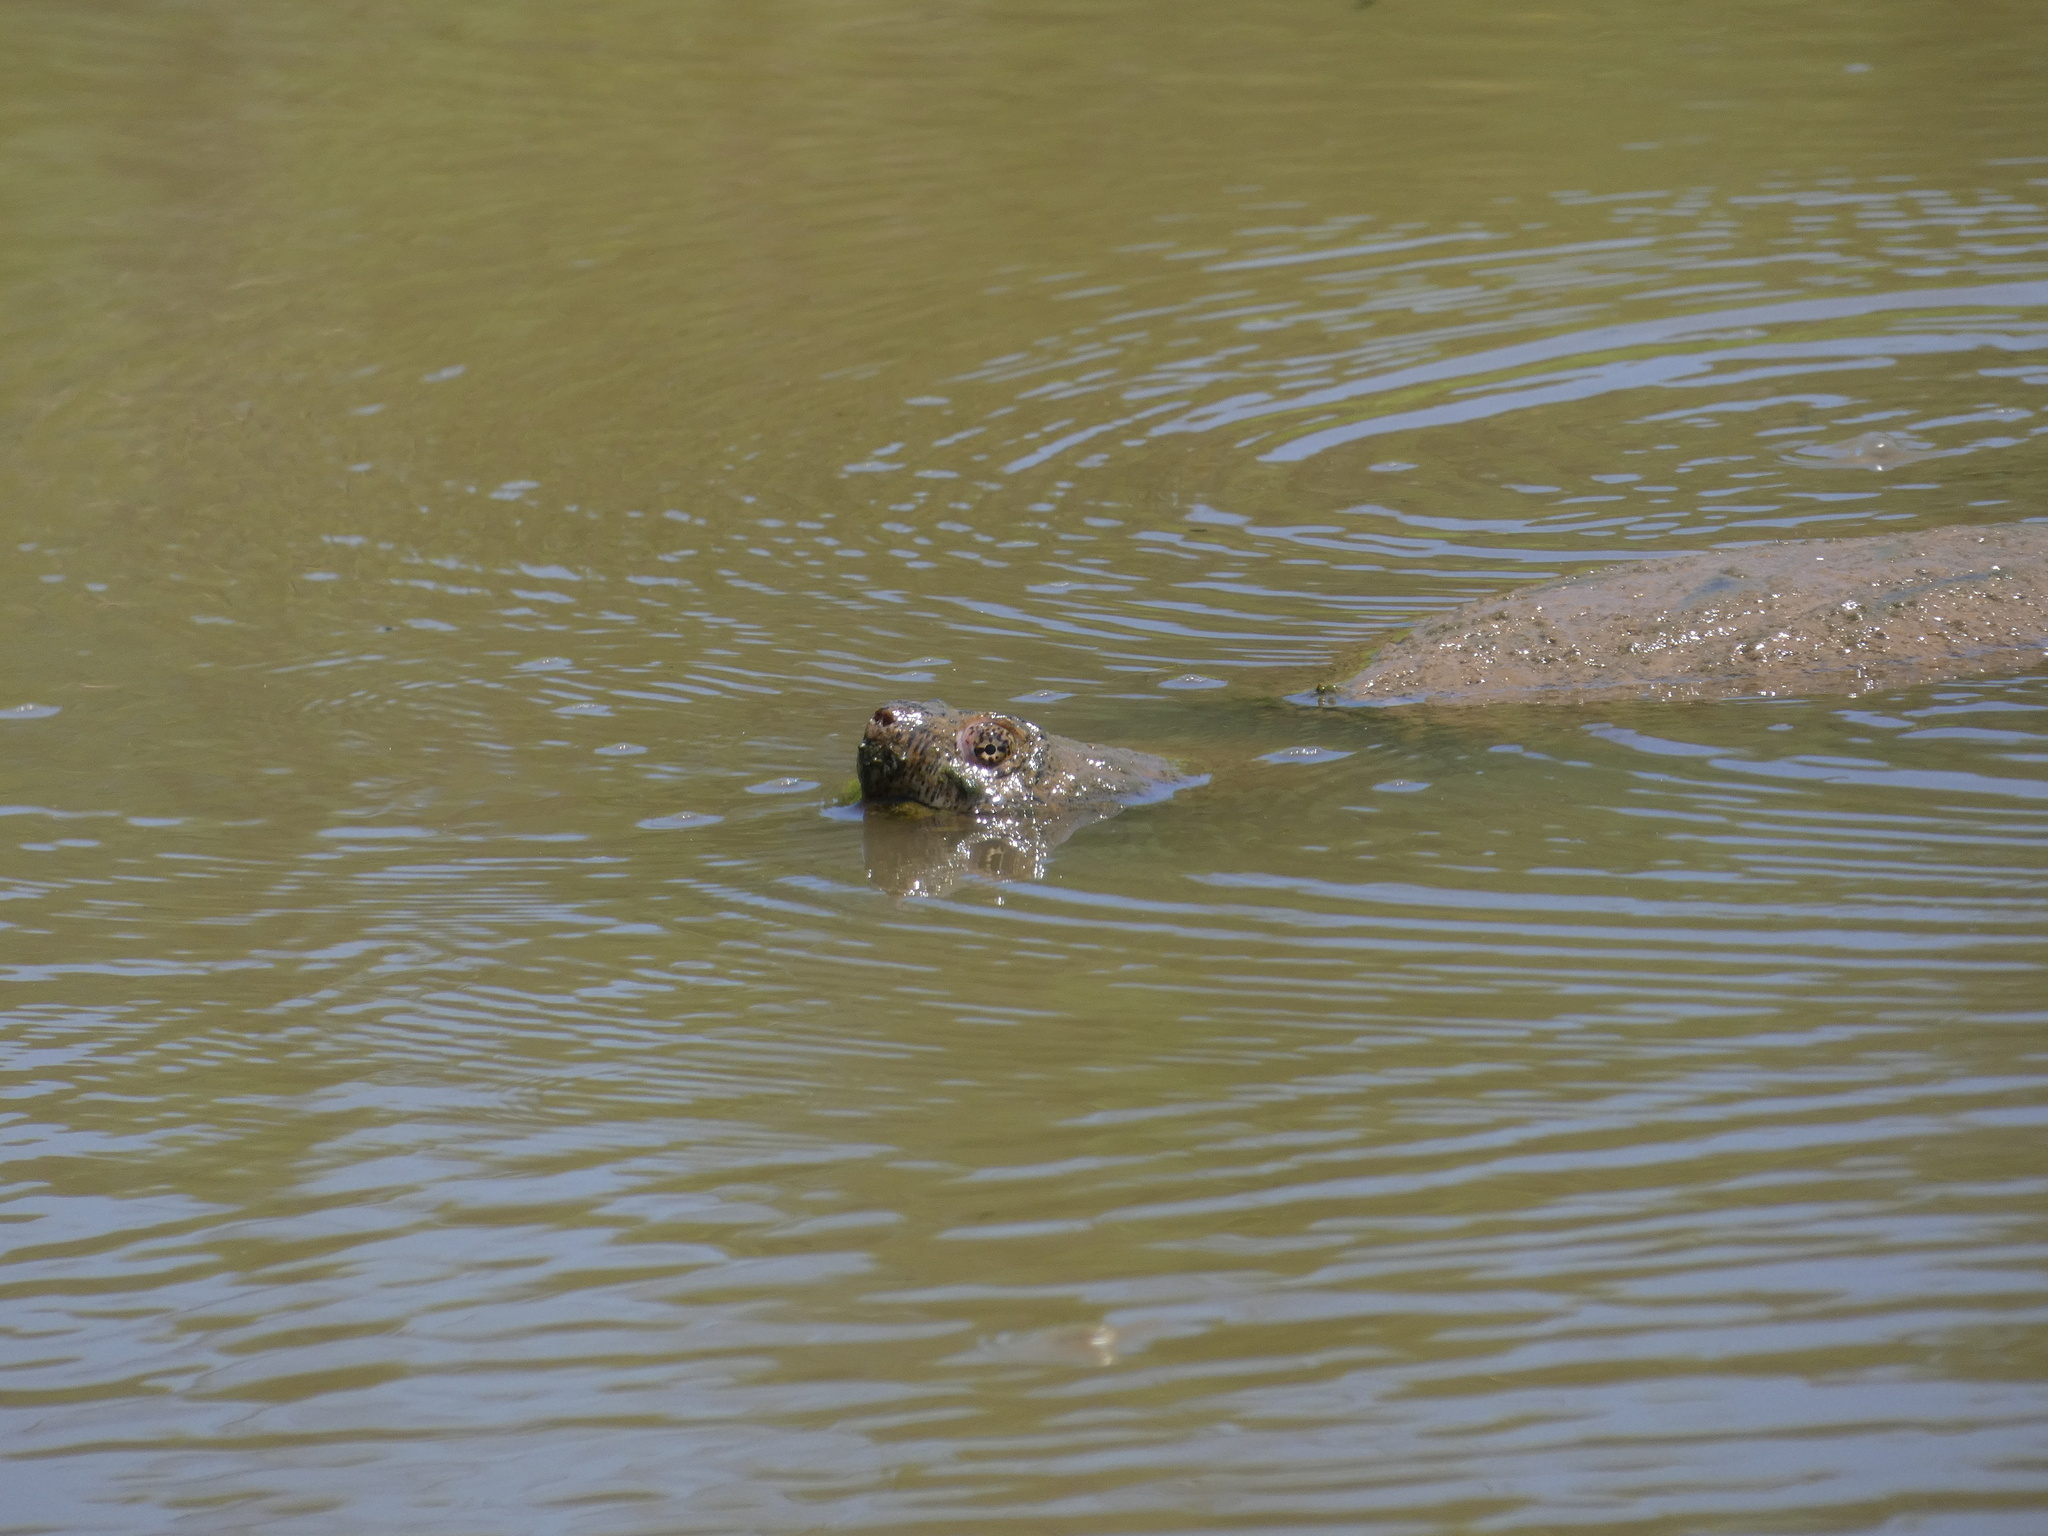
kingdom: Animalia
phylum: Chordata
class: Testudines
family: Chelydridae
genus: Chelydra
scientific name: Chelydra serpentina
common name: Common snapping turtle
